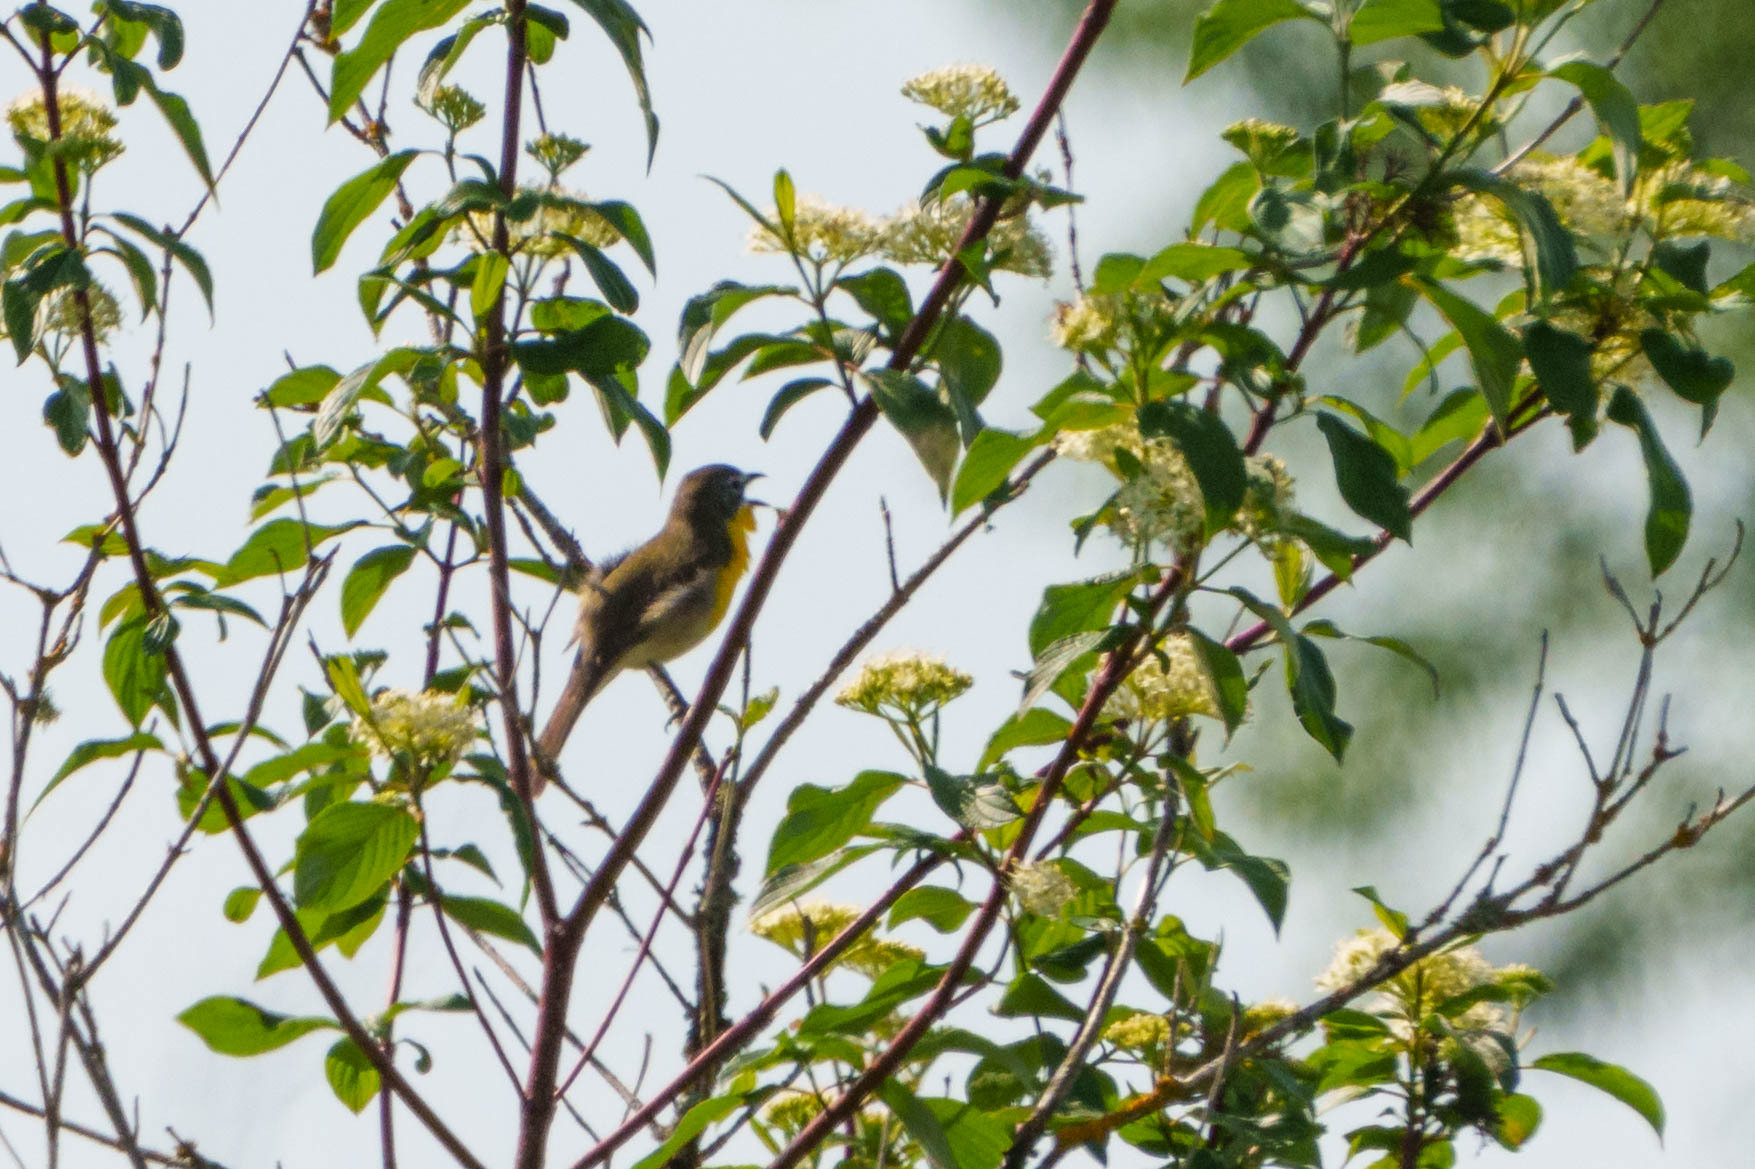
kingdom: Animalia
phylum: Chordata
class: Aves
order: Passeriformes
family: Parulidae
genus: Icteria
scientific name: Icteria virens
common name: Yellow-breasted chat
